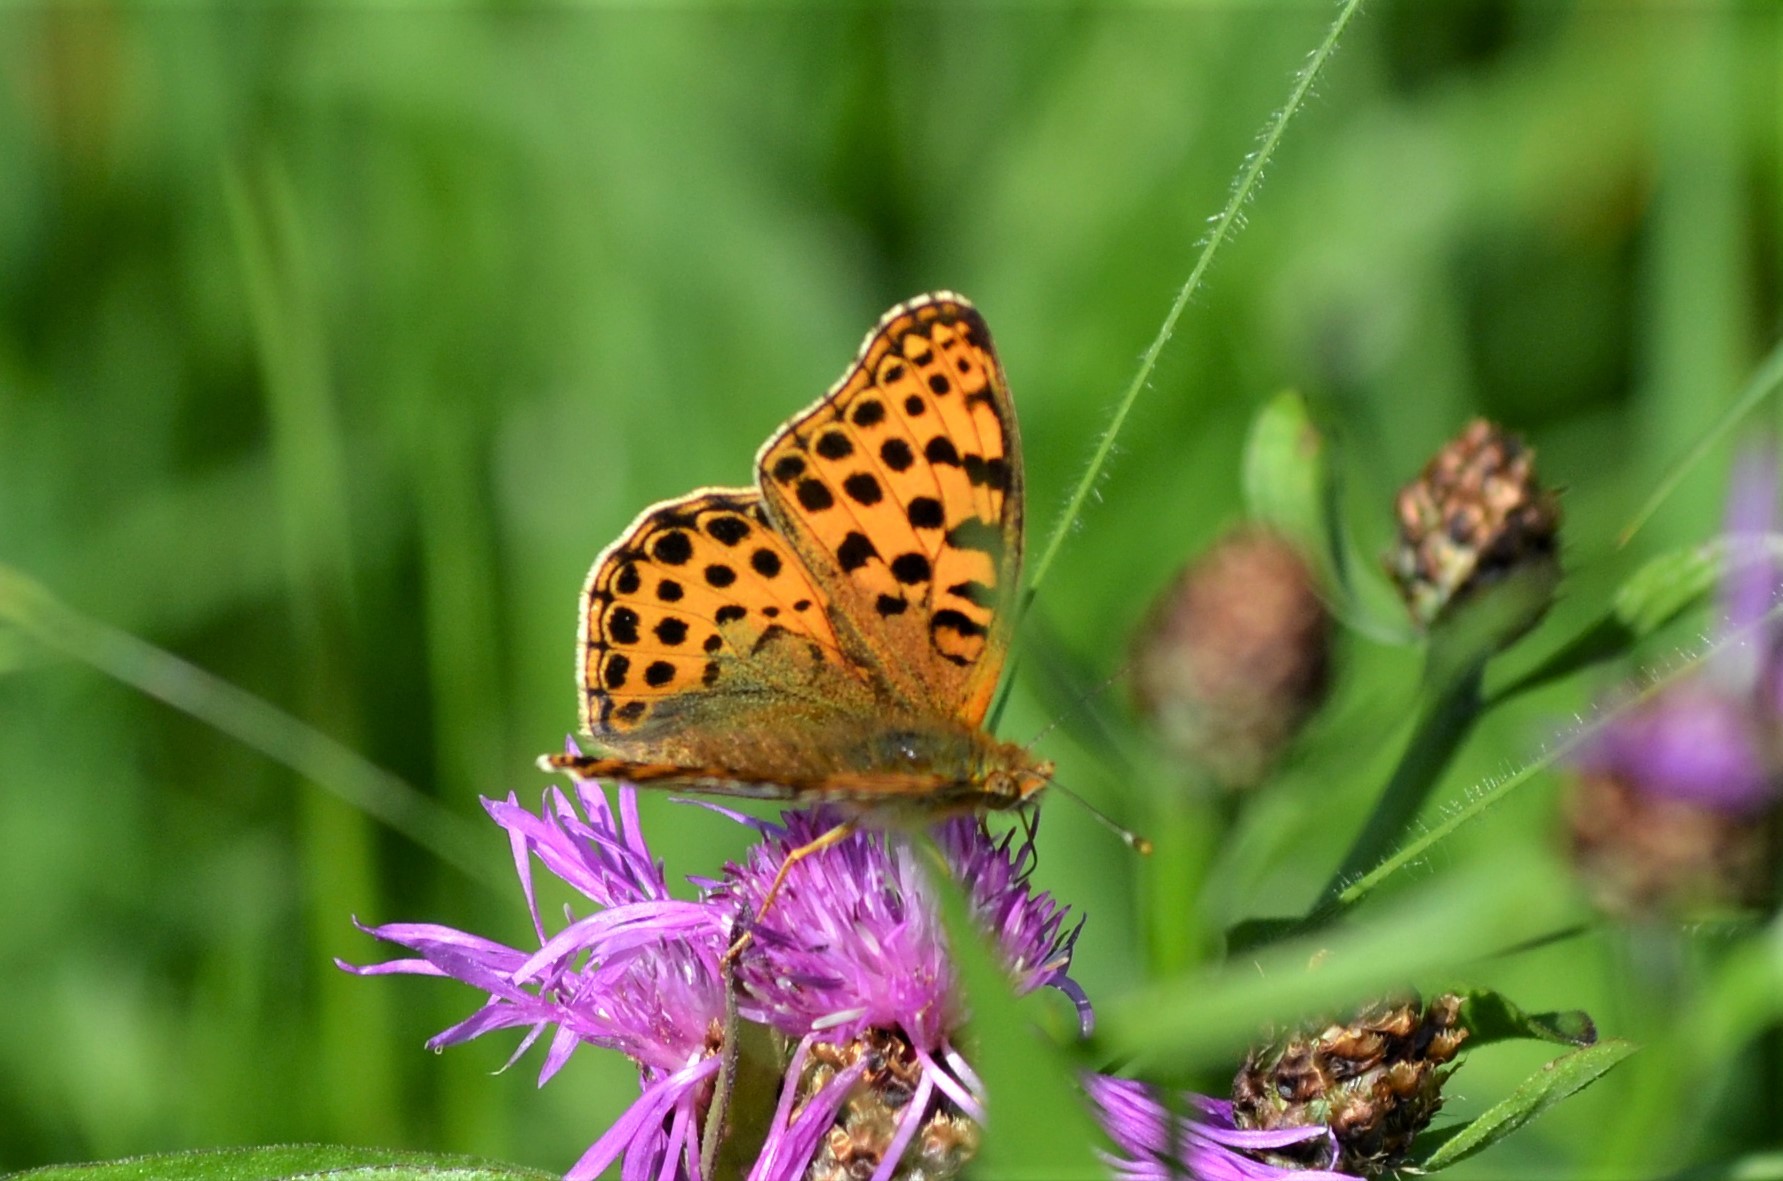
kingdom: Animalia
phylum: Arthropoda
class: Insecta
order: Lepidoptera
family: Nymphalidae
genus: Issoria
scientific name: Issoria lathonia
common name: Queen of spain fritillary
